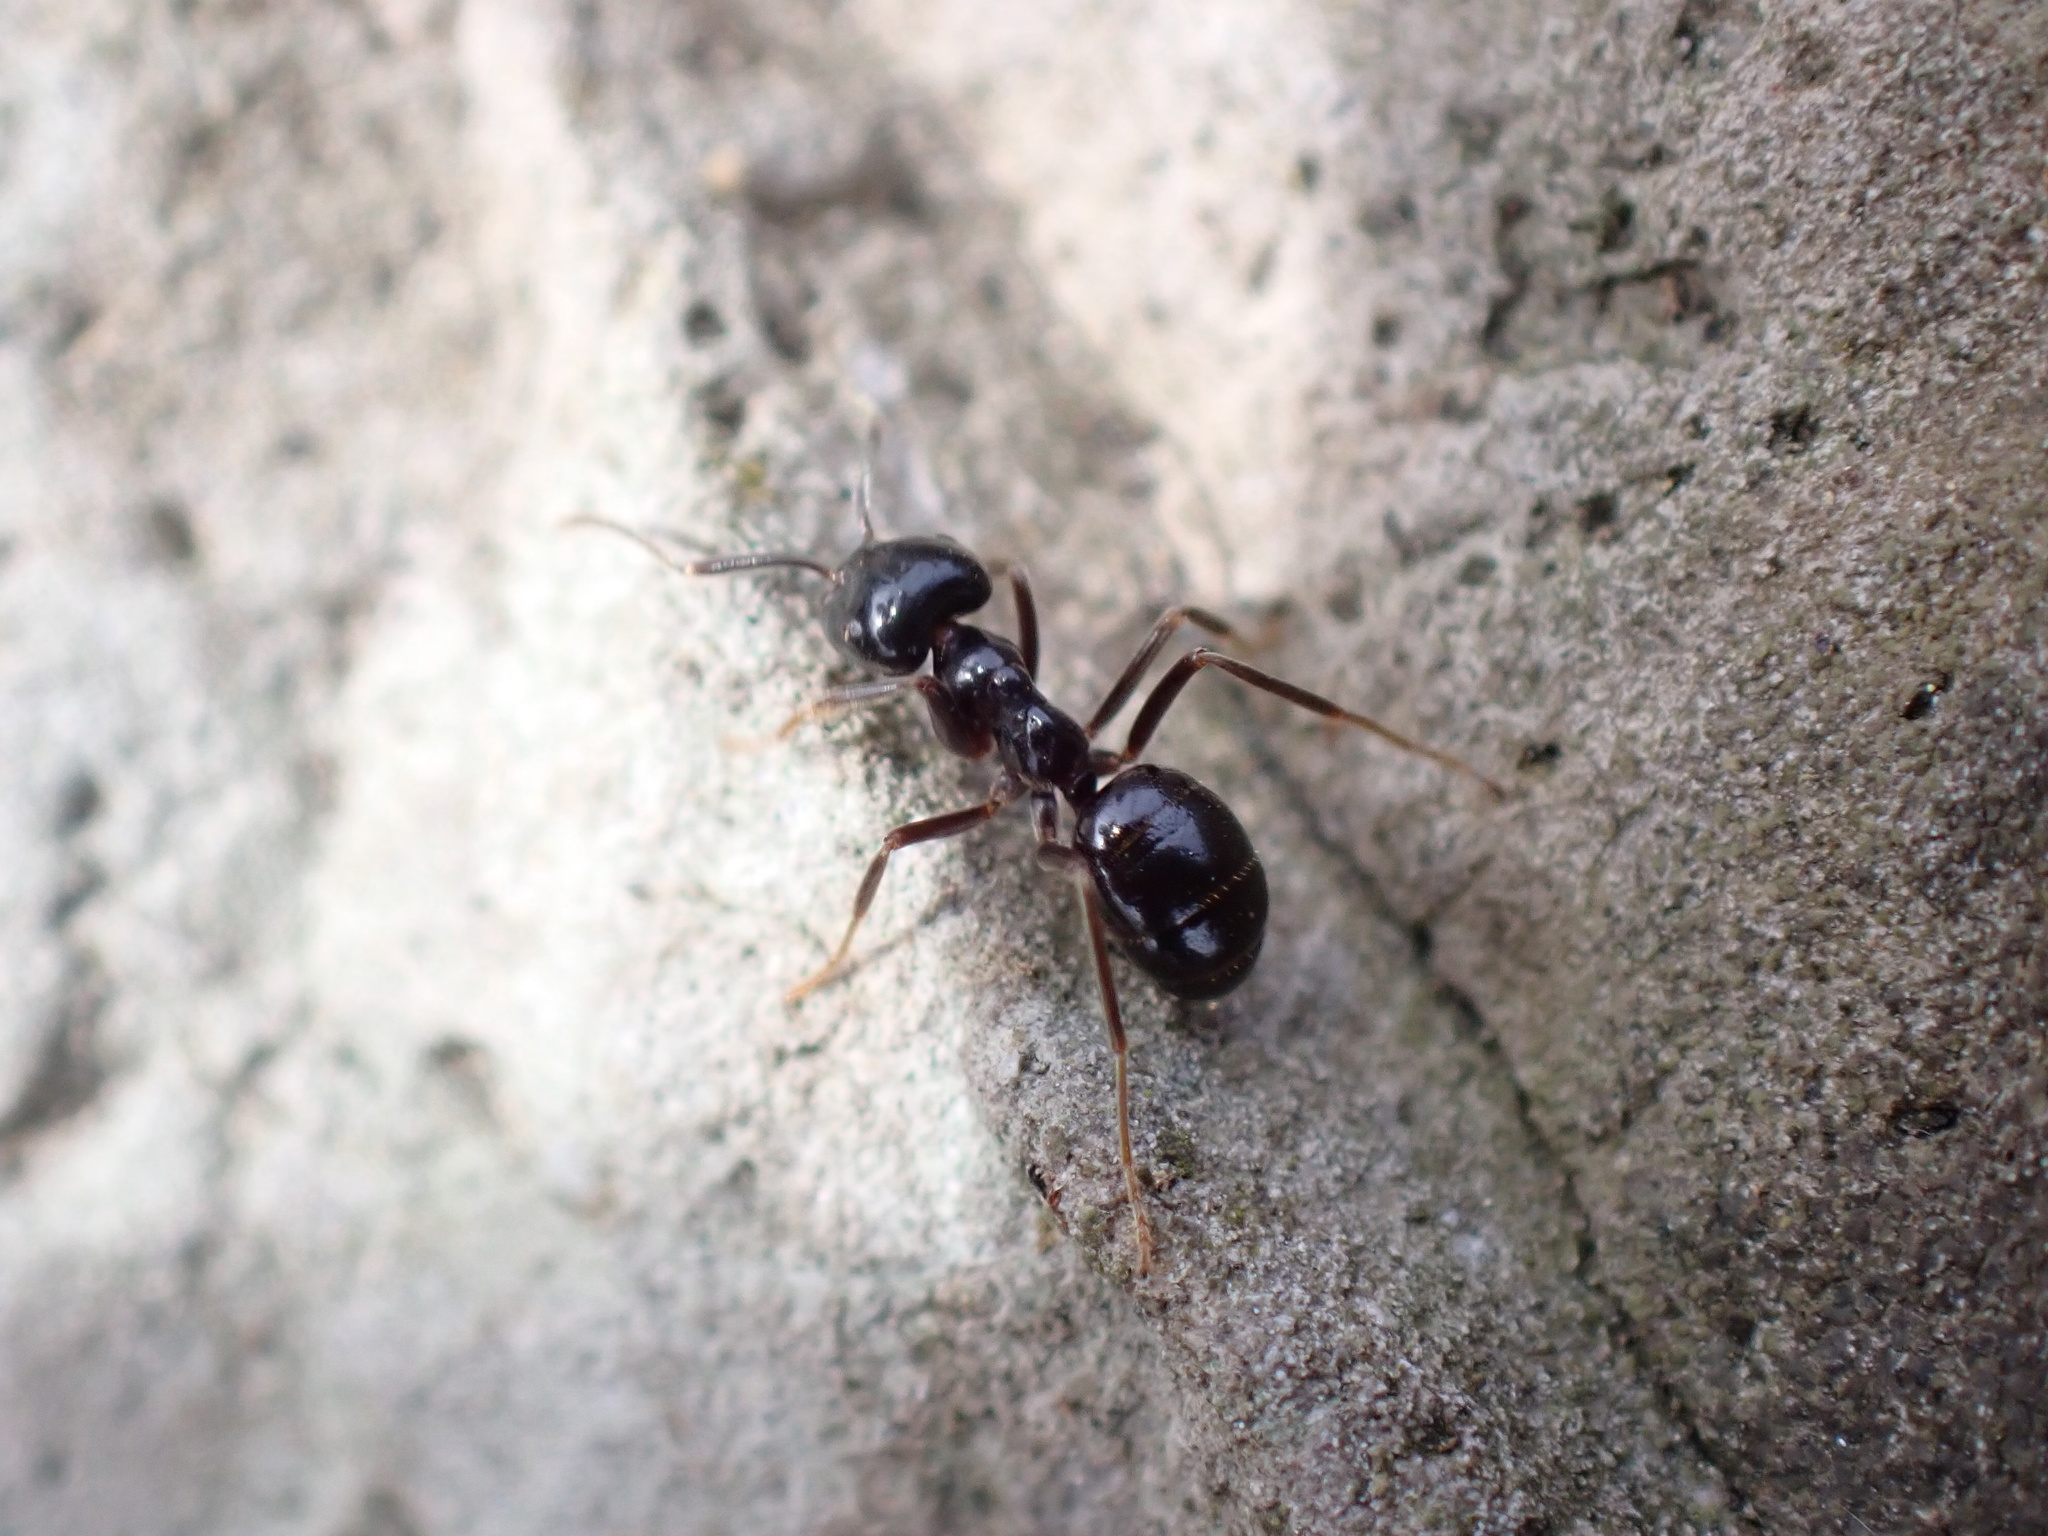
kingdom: Animalia
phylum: Arthropoda
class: Insecta
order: Hymenoptera
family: Formicidae
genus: Lasius
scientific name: Lasius fuliginosus
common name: Jet ant
